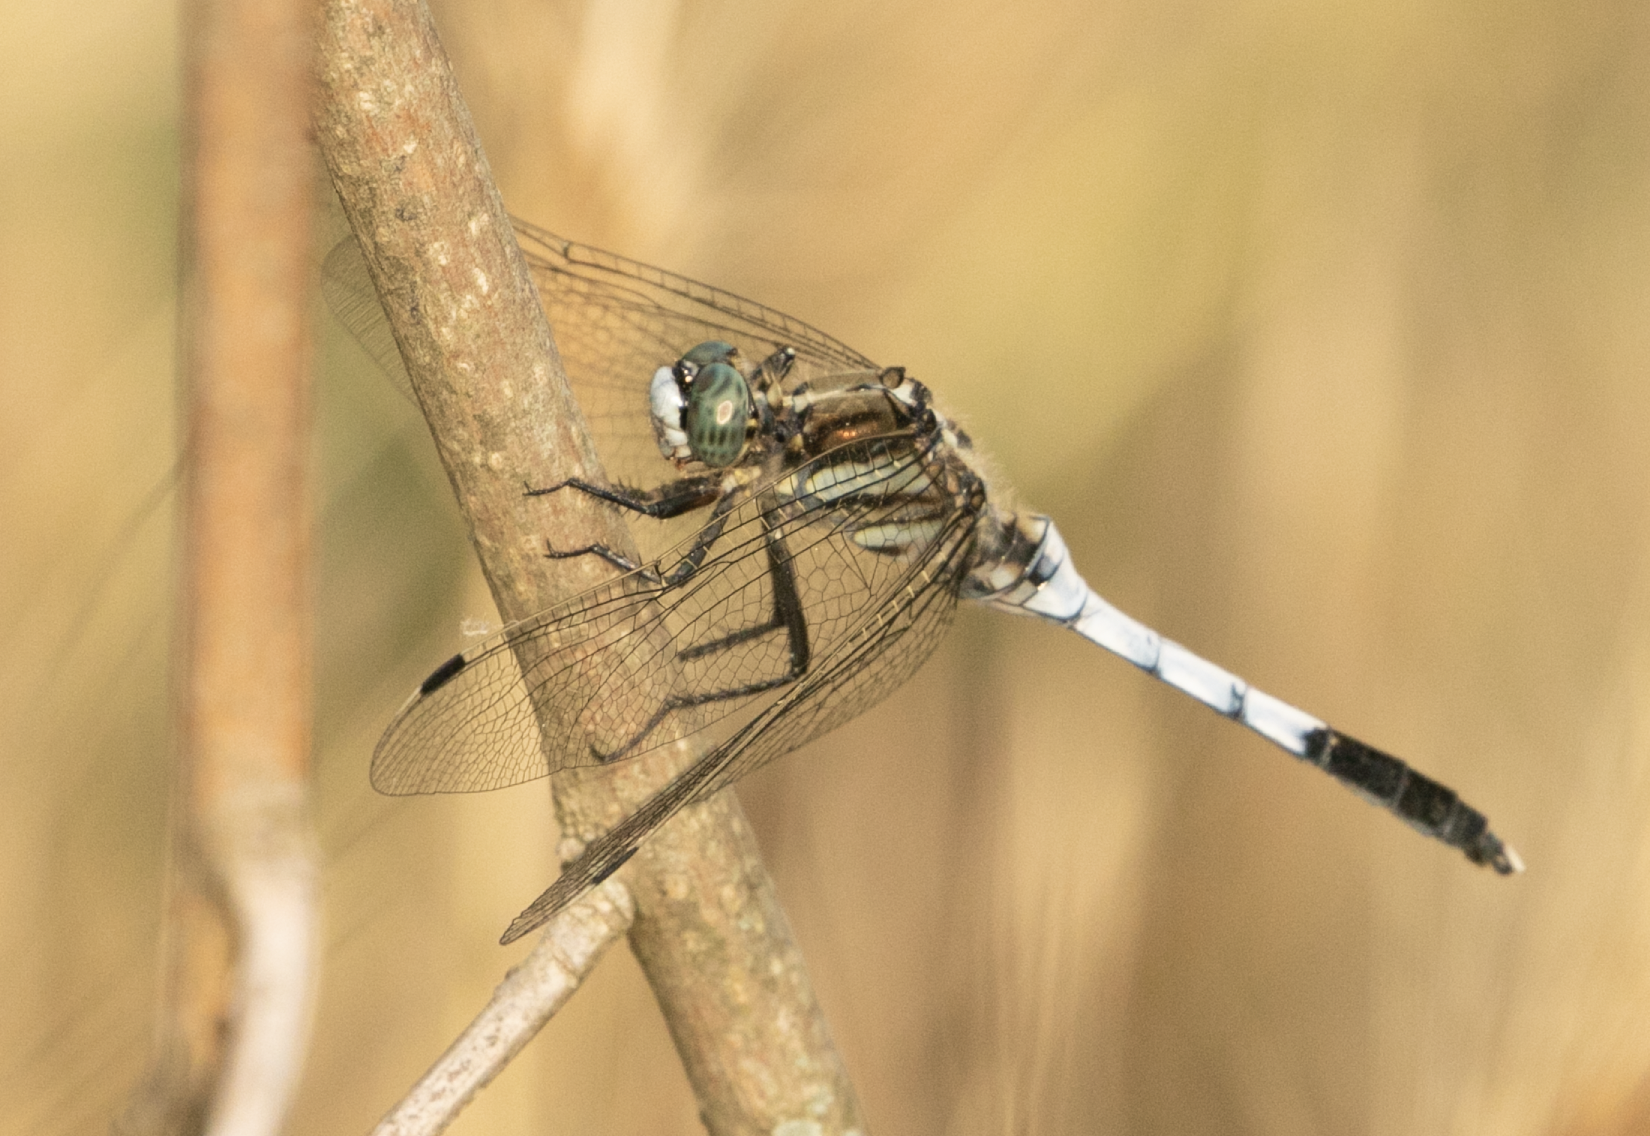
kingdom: Animalia
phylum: Arthropoda
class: Insecta
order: Odonata
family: Libellulidae
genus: Orthetrum
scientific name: Orthetrum albistylum
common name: White-tailed skimmer
